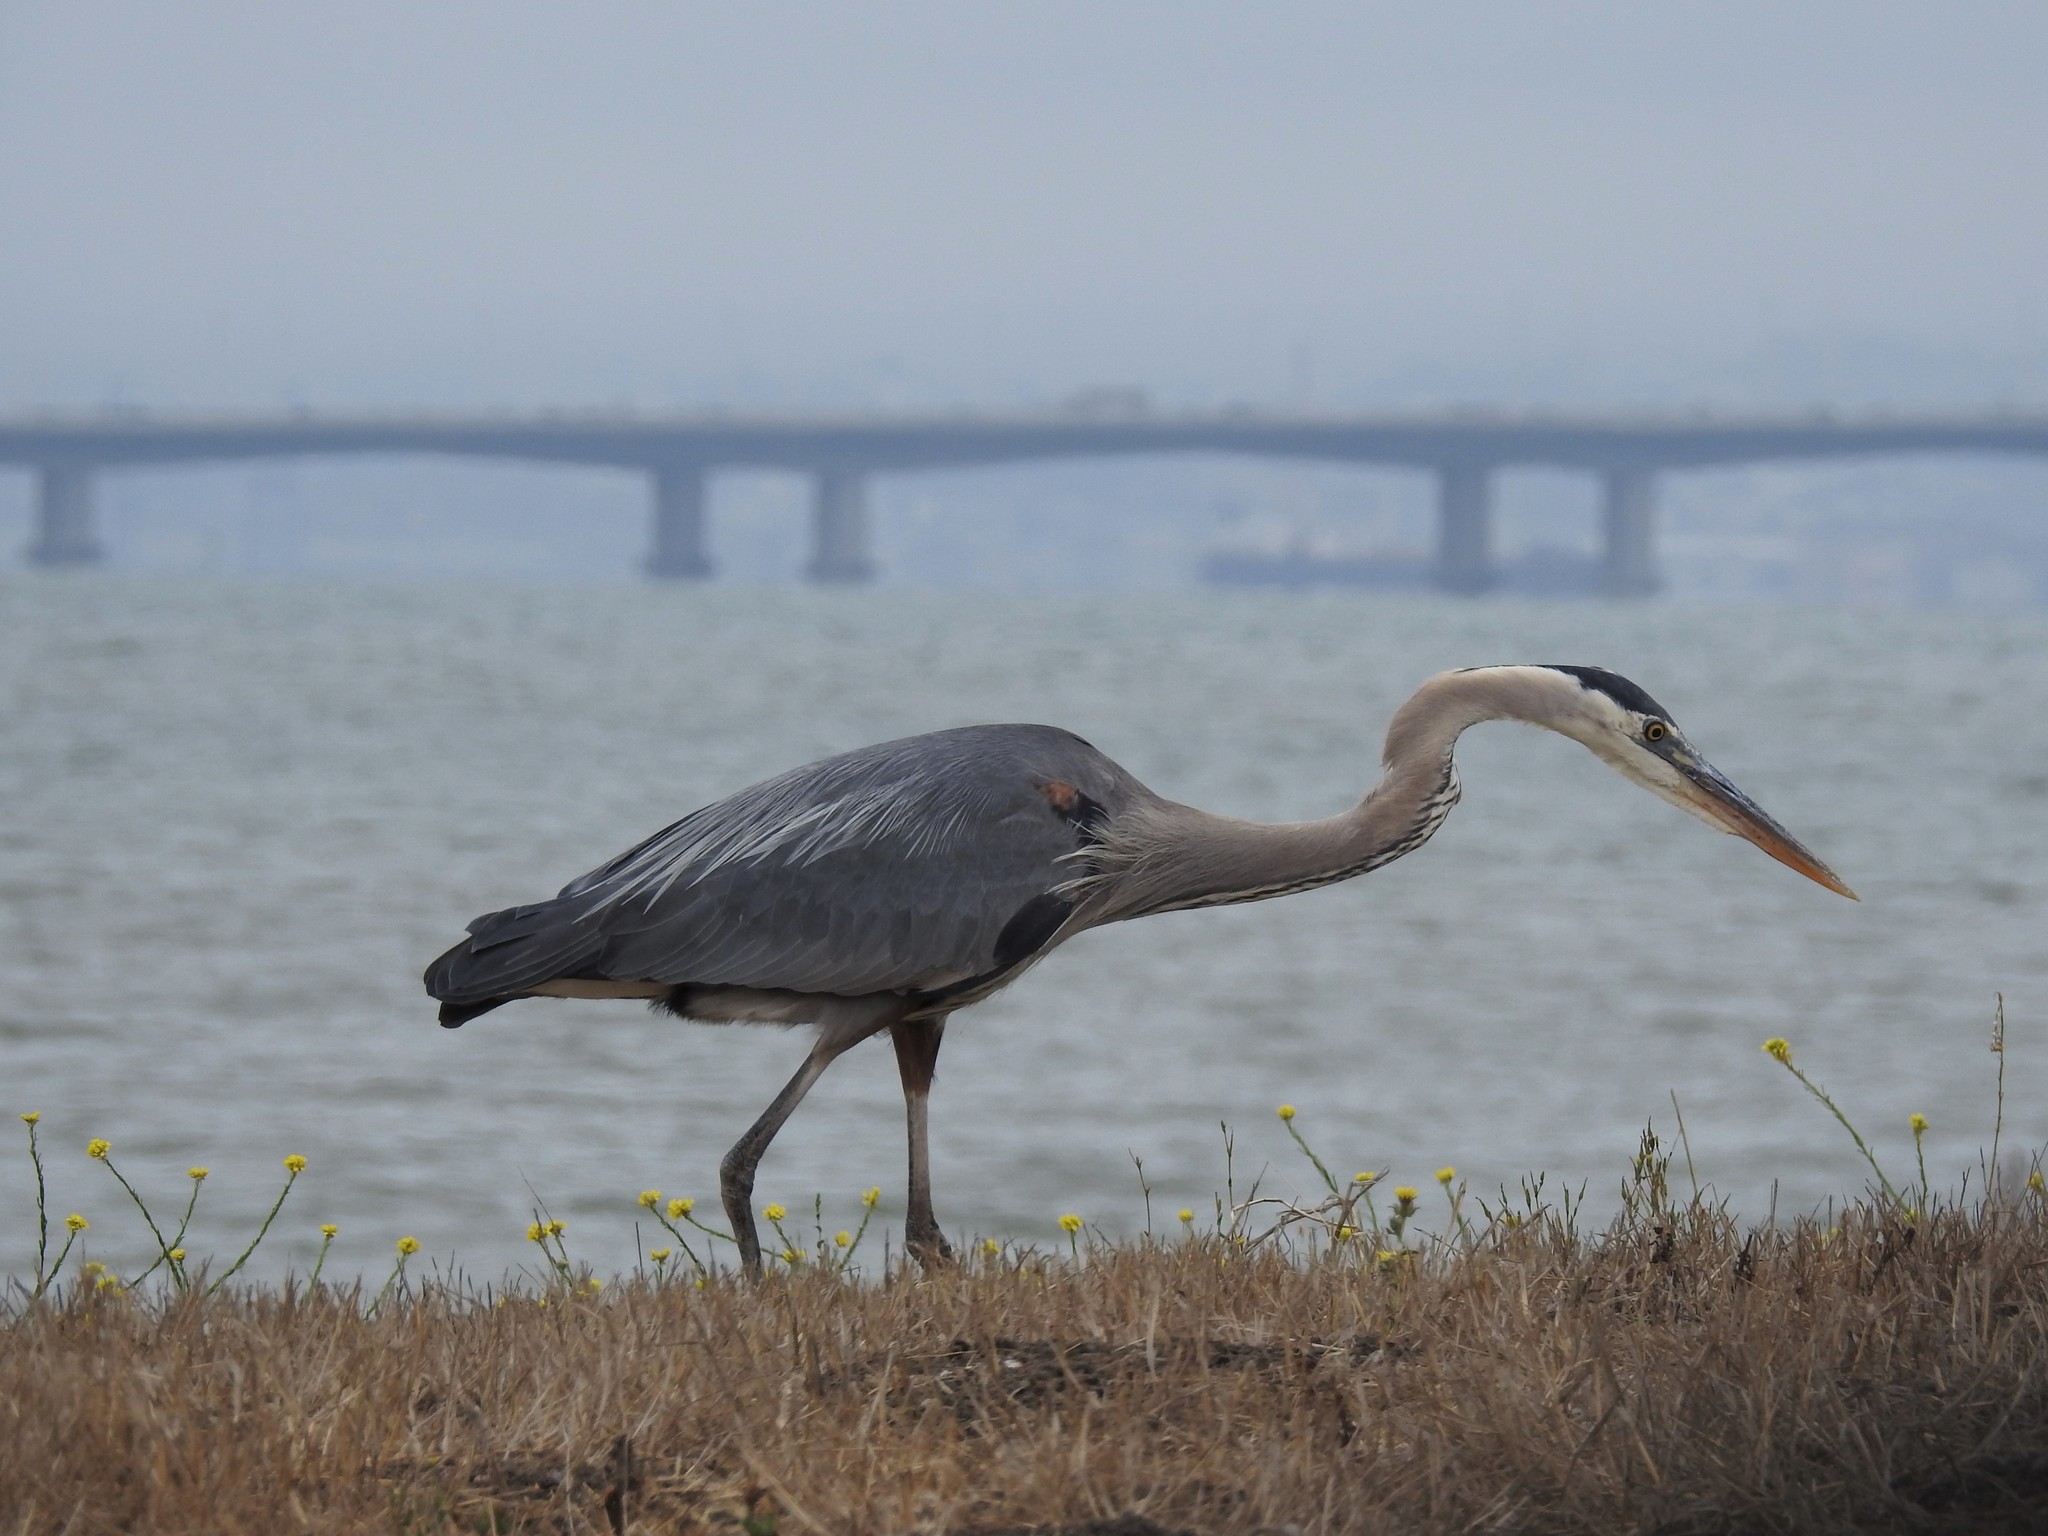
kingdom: Animalia
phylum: Chordata
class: Aves
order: Pelecaniformes
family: Ardeidae
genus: Ardea
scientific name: Ardea herodias
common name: Great blue heron
